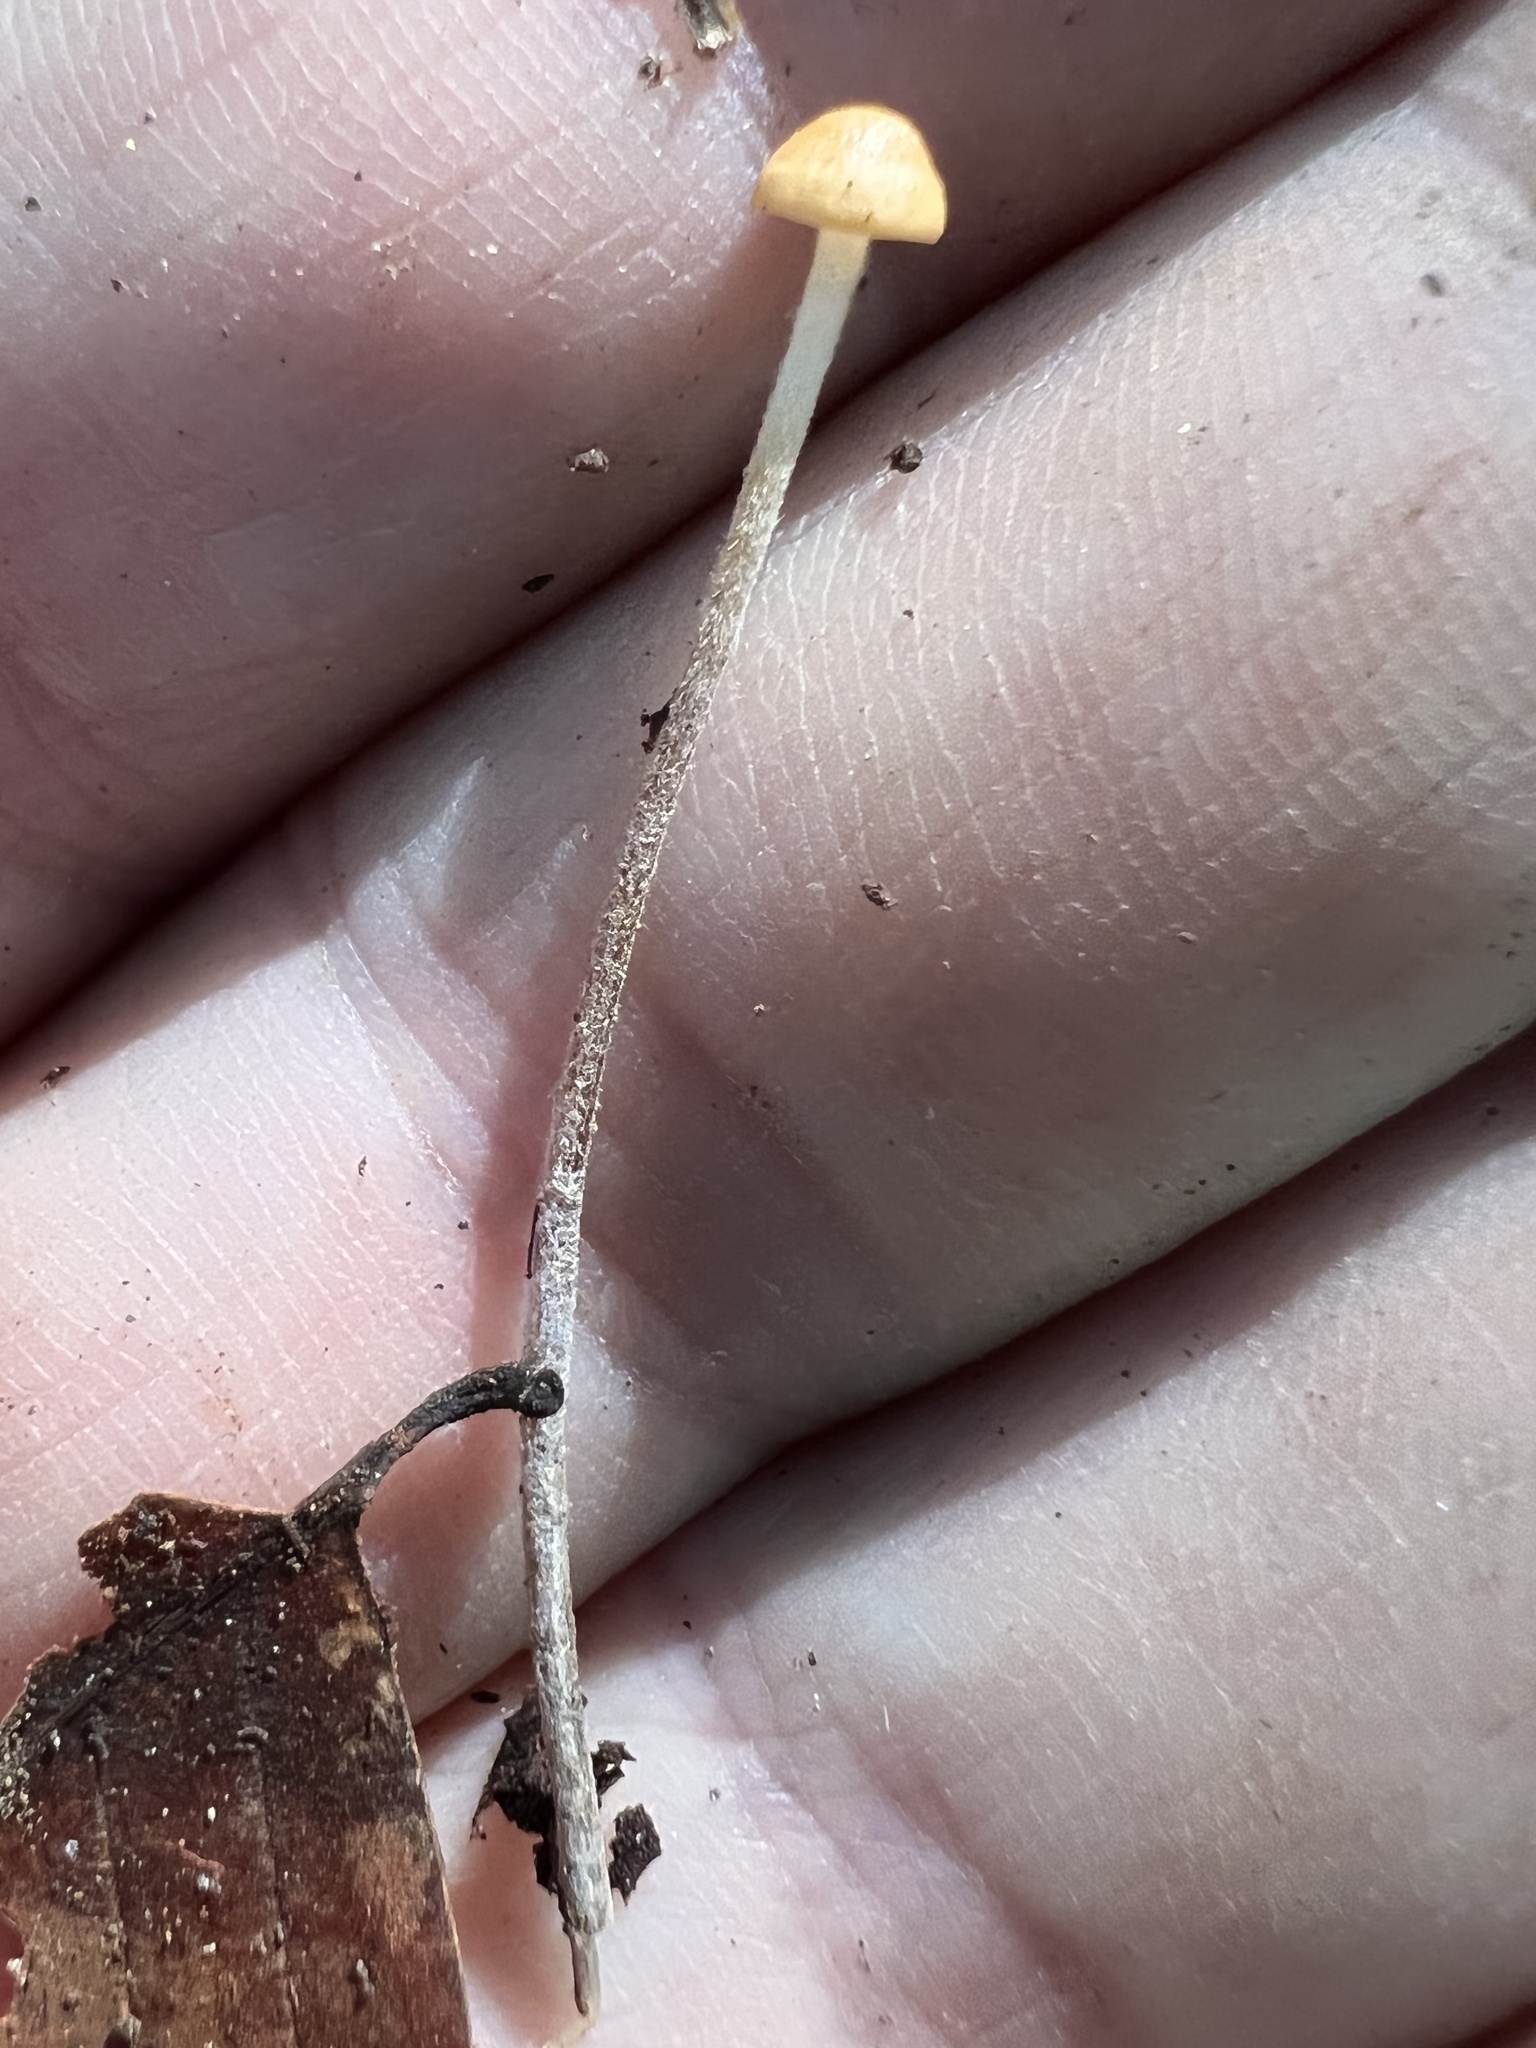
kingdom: Fungi
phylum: Basidiomycota
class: Agaricomycetes
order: Agaricales
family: Physalacriaceae
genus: Rhizomarasmius
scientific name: Rhizomarasmius pyrrhocephalus
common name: Hairy long stem marasmius
